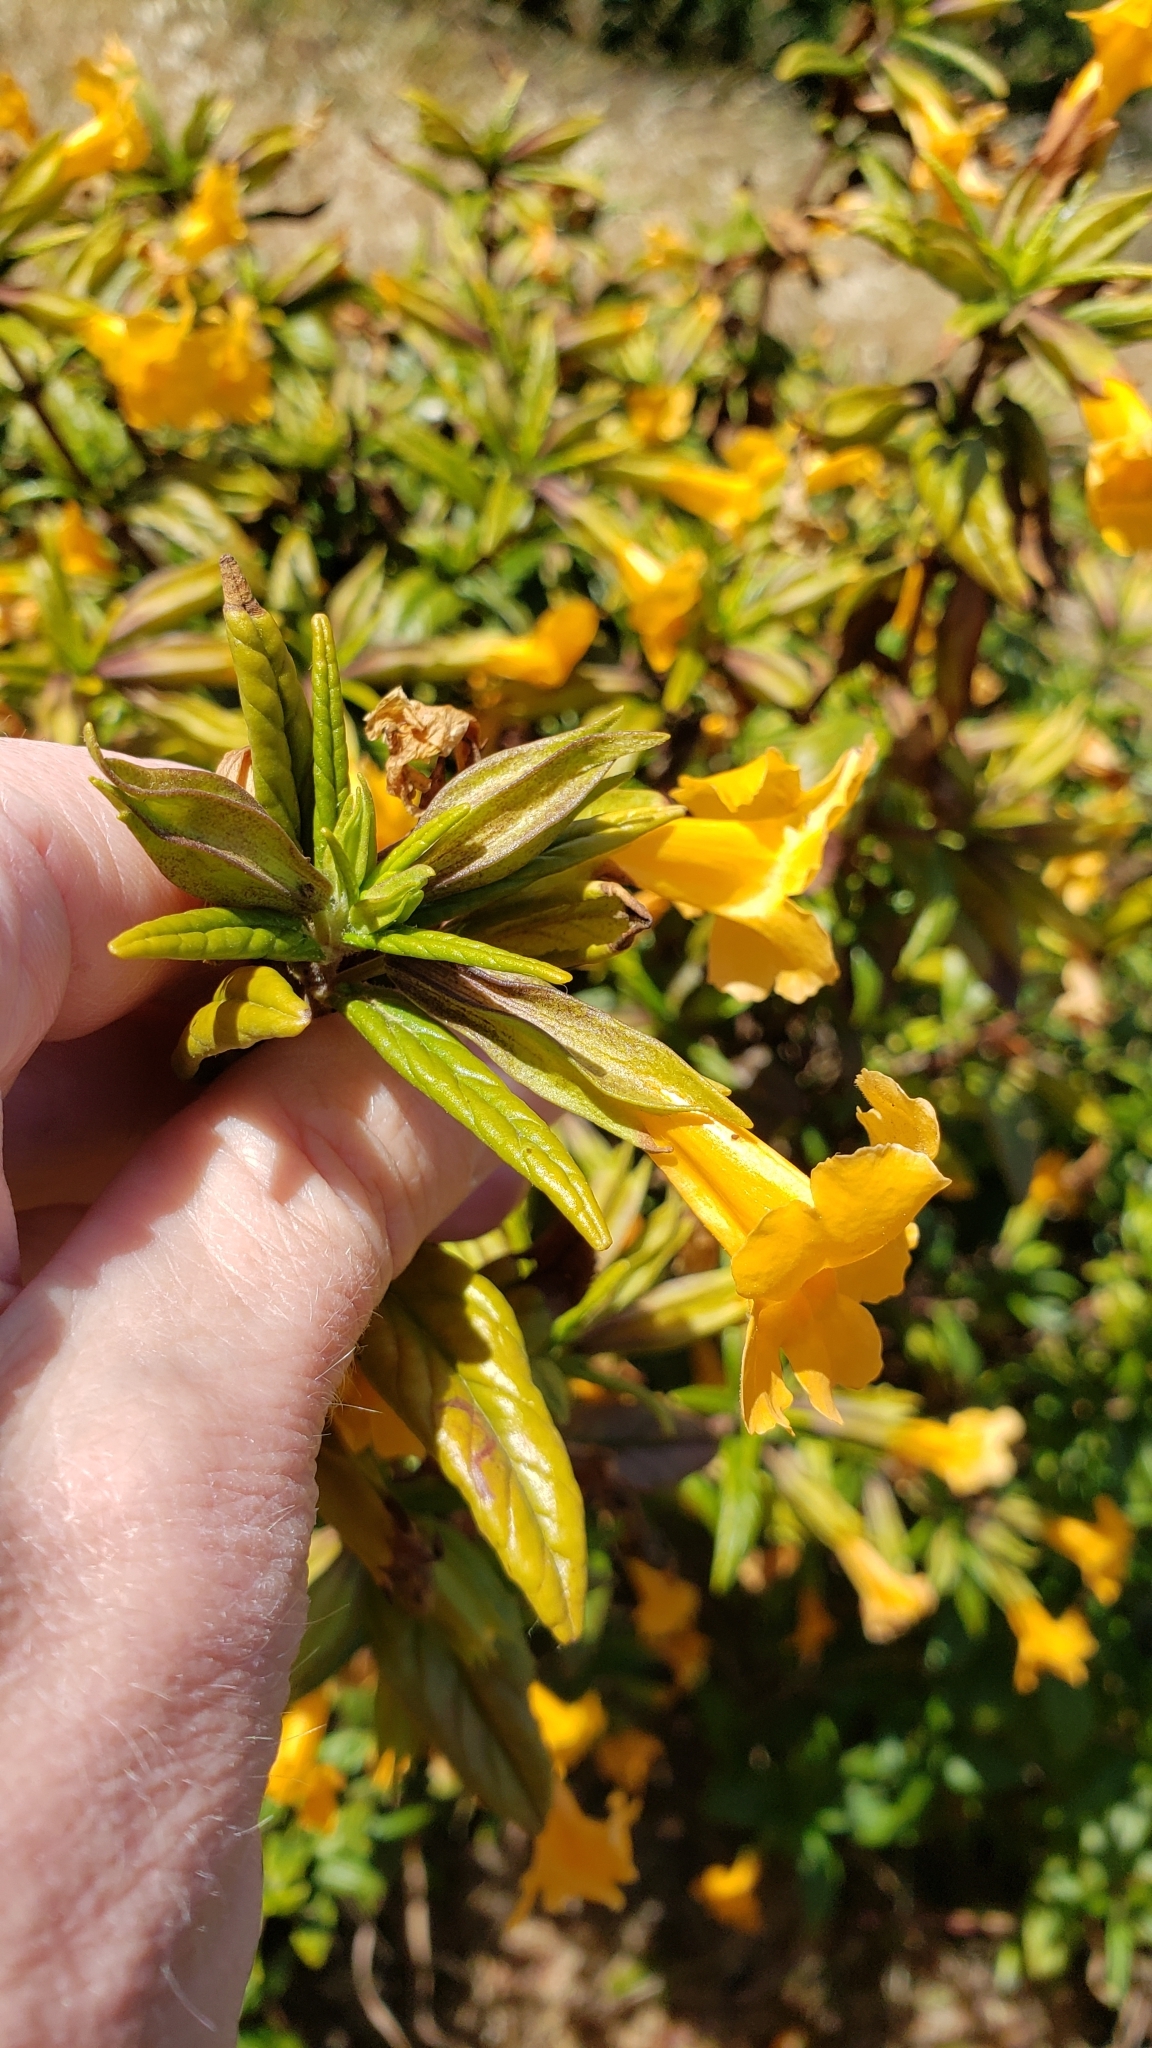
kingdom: Plantae
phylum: Tracheophyta
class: Magnoliopsida
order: Lamiales
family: Phrymaceae
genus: Diplacus
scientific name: Diplacus aurantiacus
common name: Bush monkey-flower
